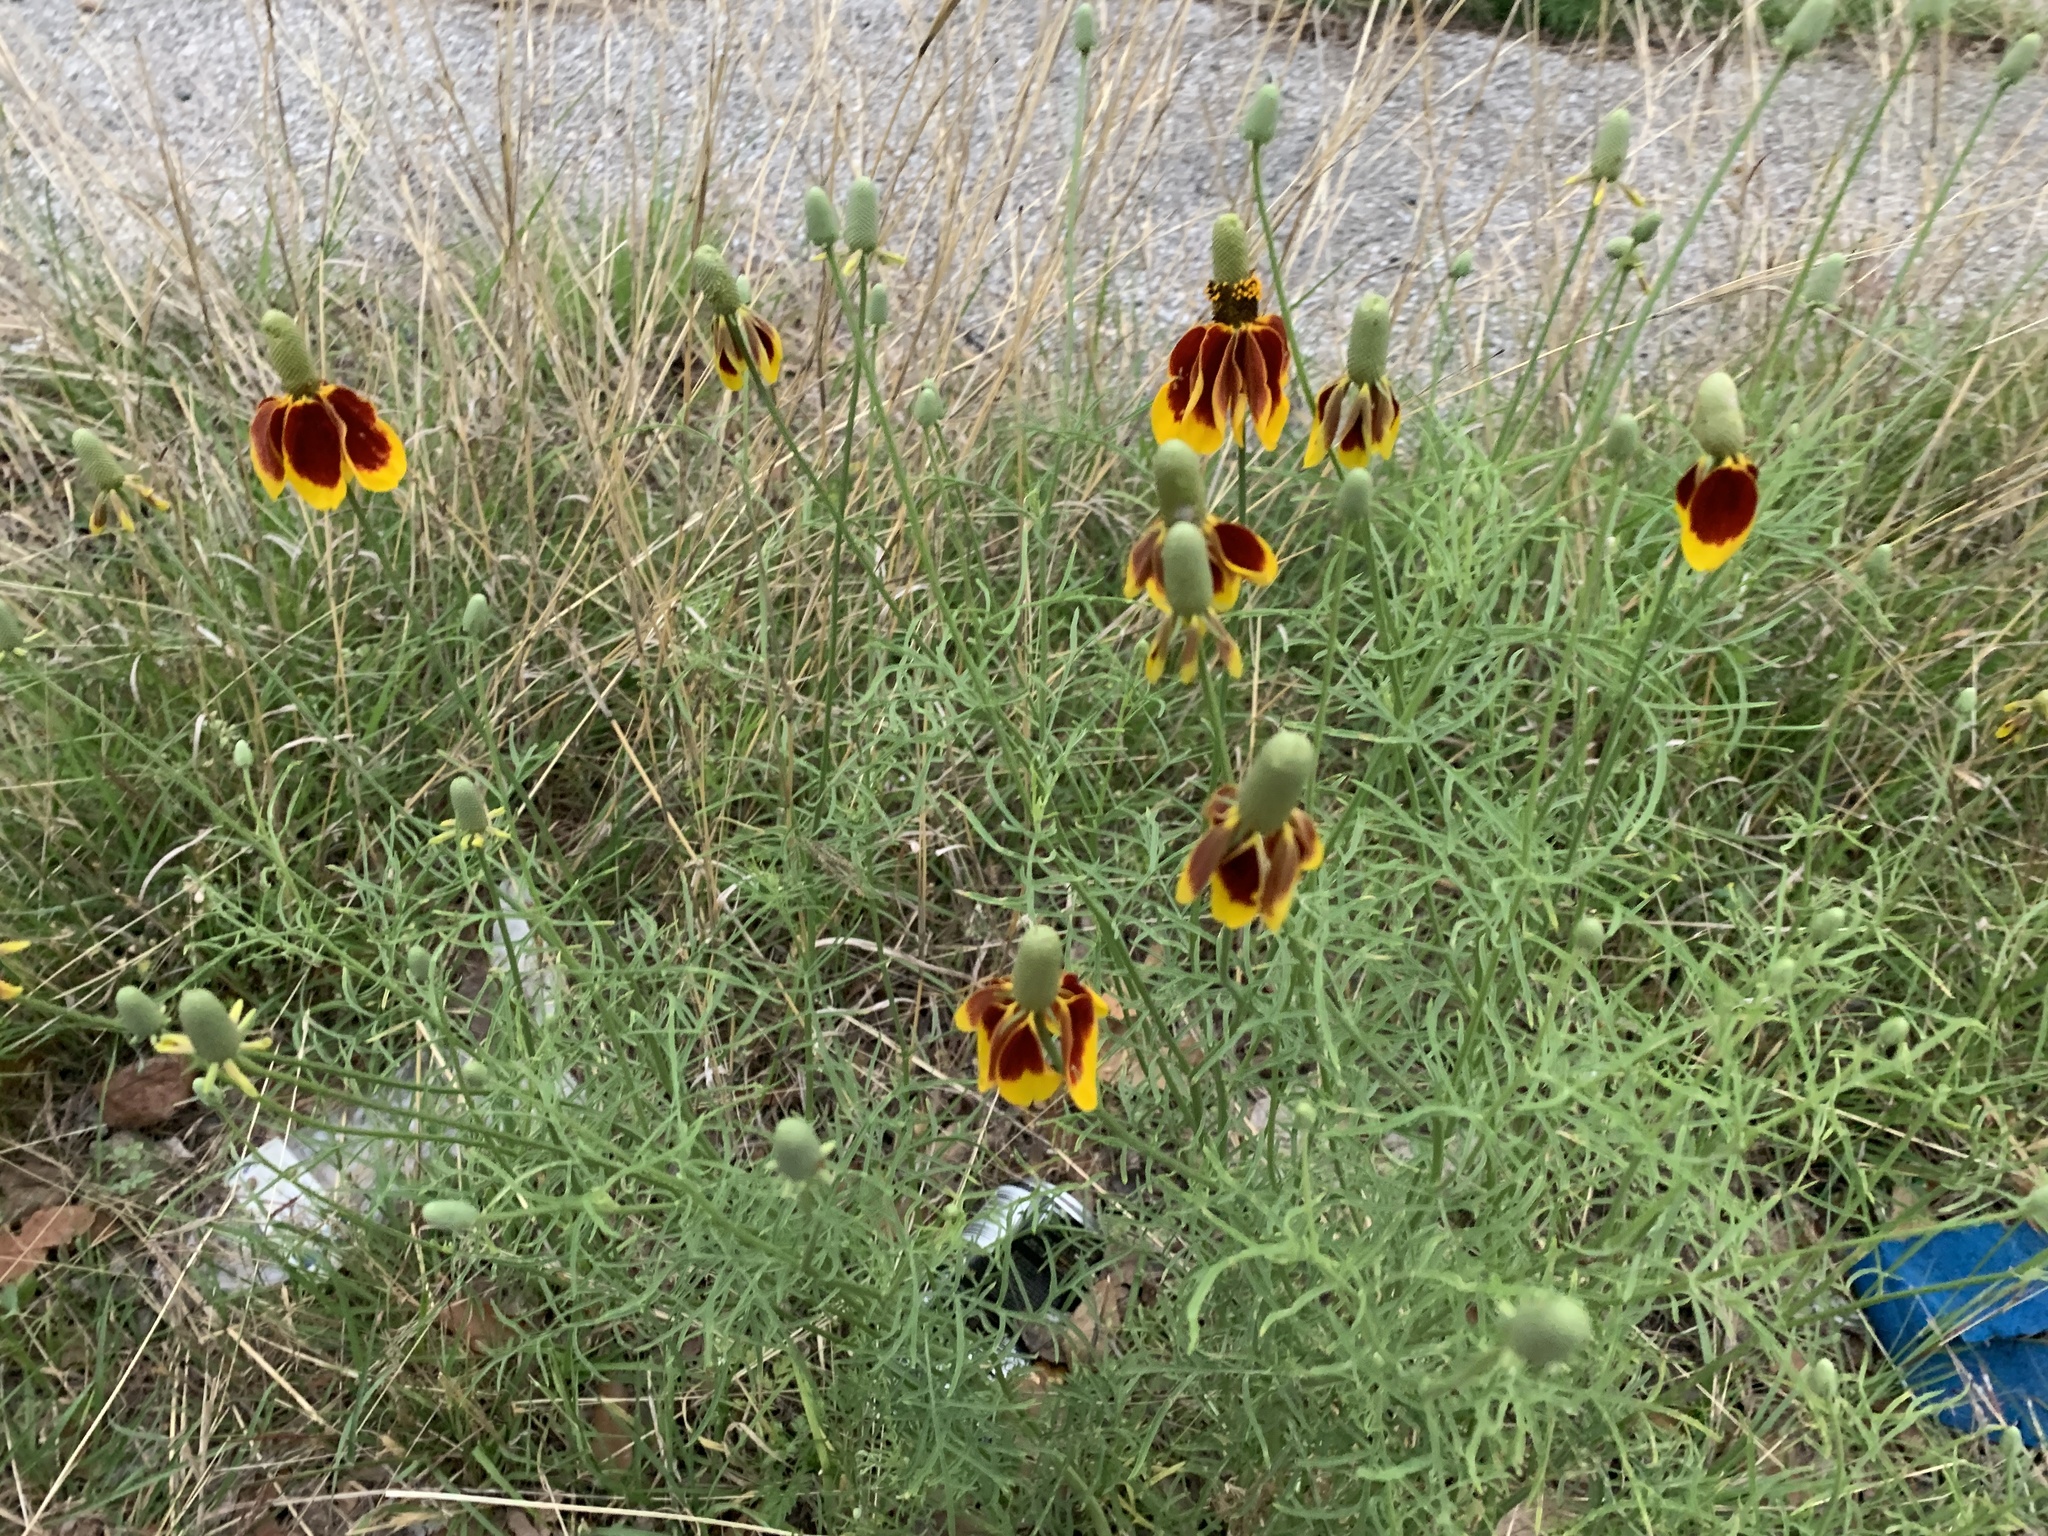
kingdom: Plantae
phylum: Tracheophyta
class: Magnoliopsida
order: Asterales
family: Asteraceae
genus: Ratibida
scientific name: Ratibida columnifera
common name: Prairie coneflower
